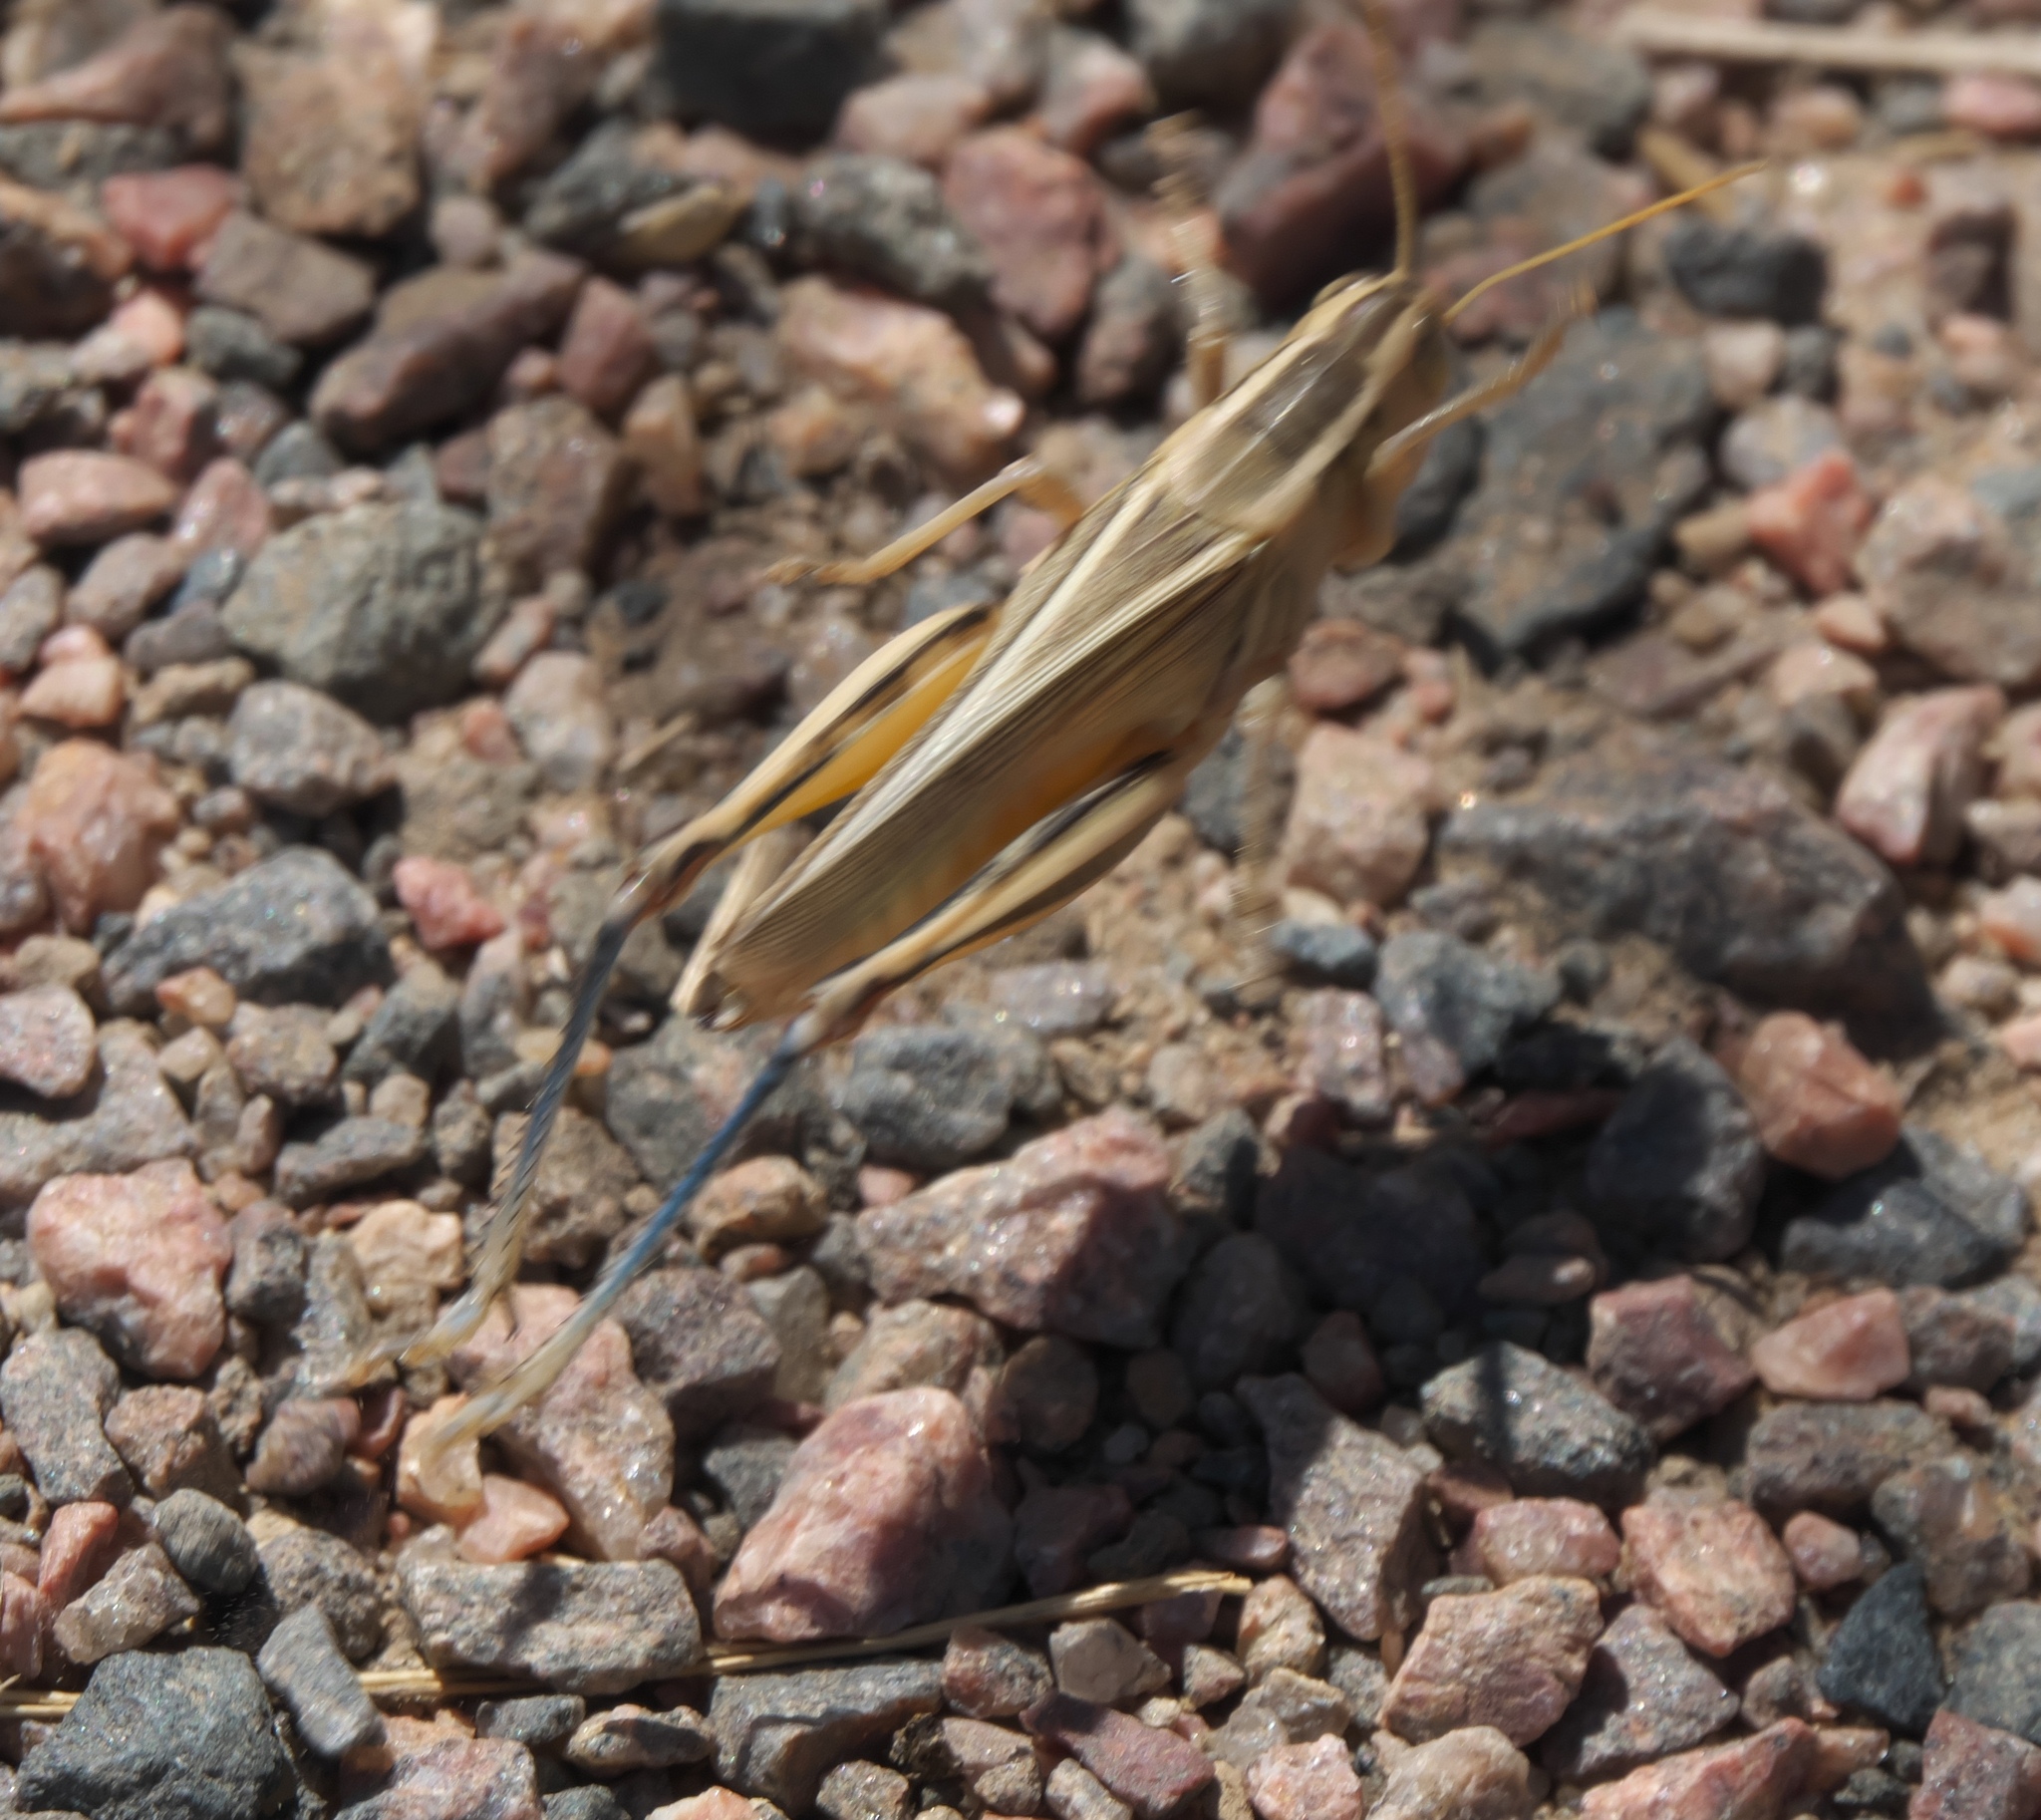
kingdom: Animalia
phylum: Arthropoda
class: Insecta
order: Orthoptera
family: Acrididae
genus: Melanoplus
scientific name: Melanoplus bivittatus
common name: Two-striped grasshopper
